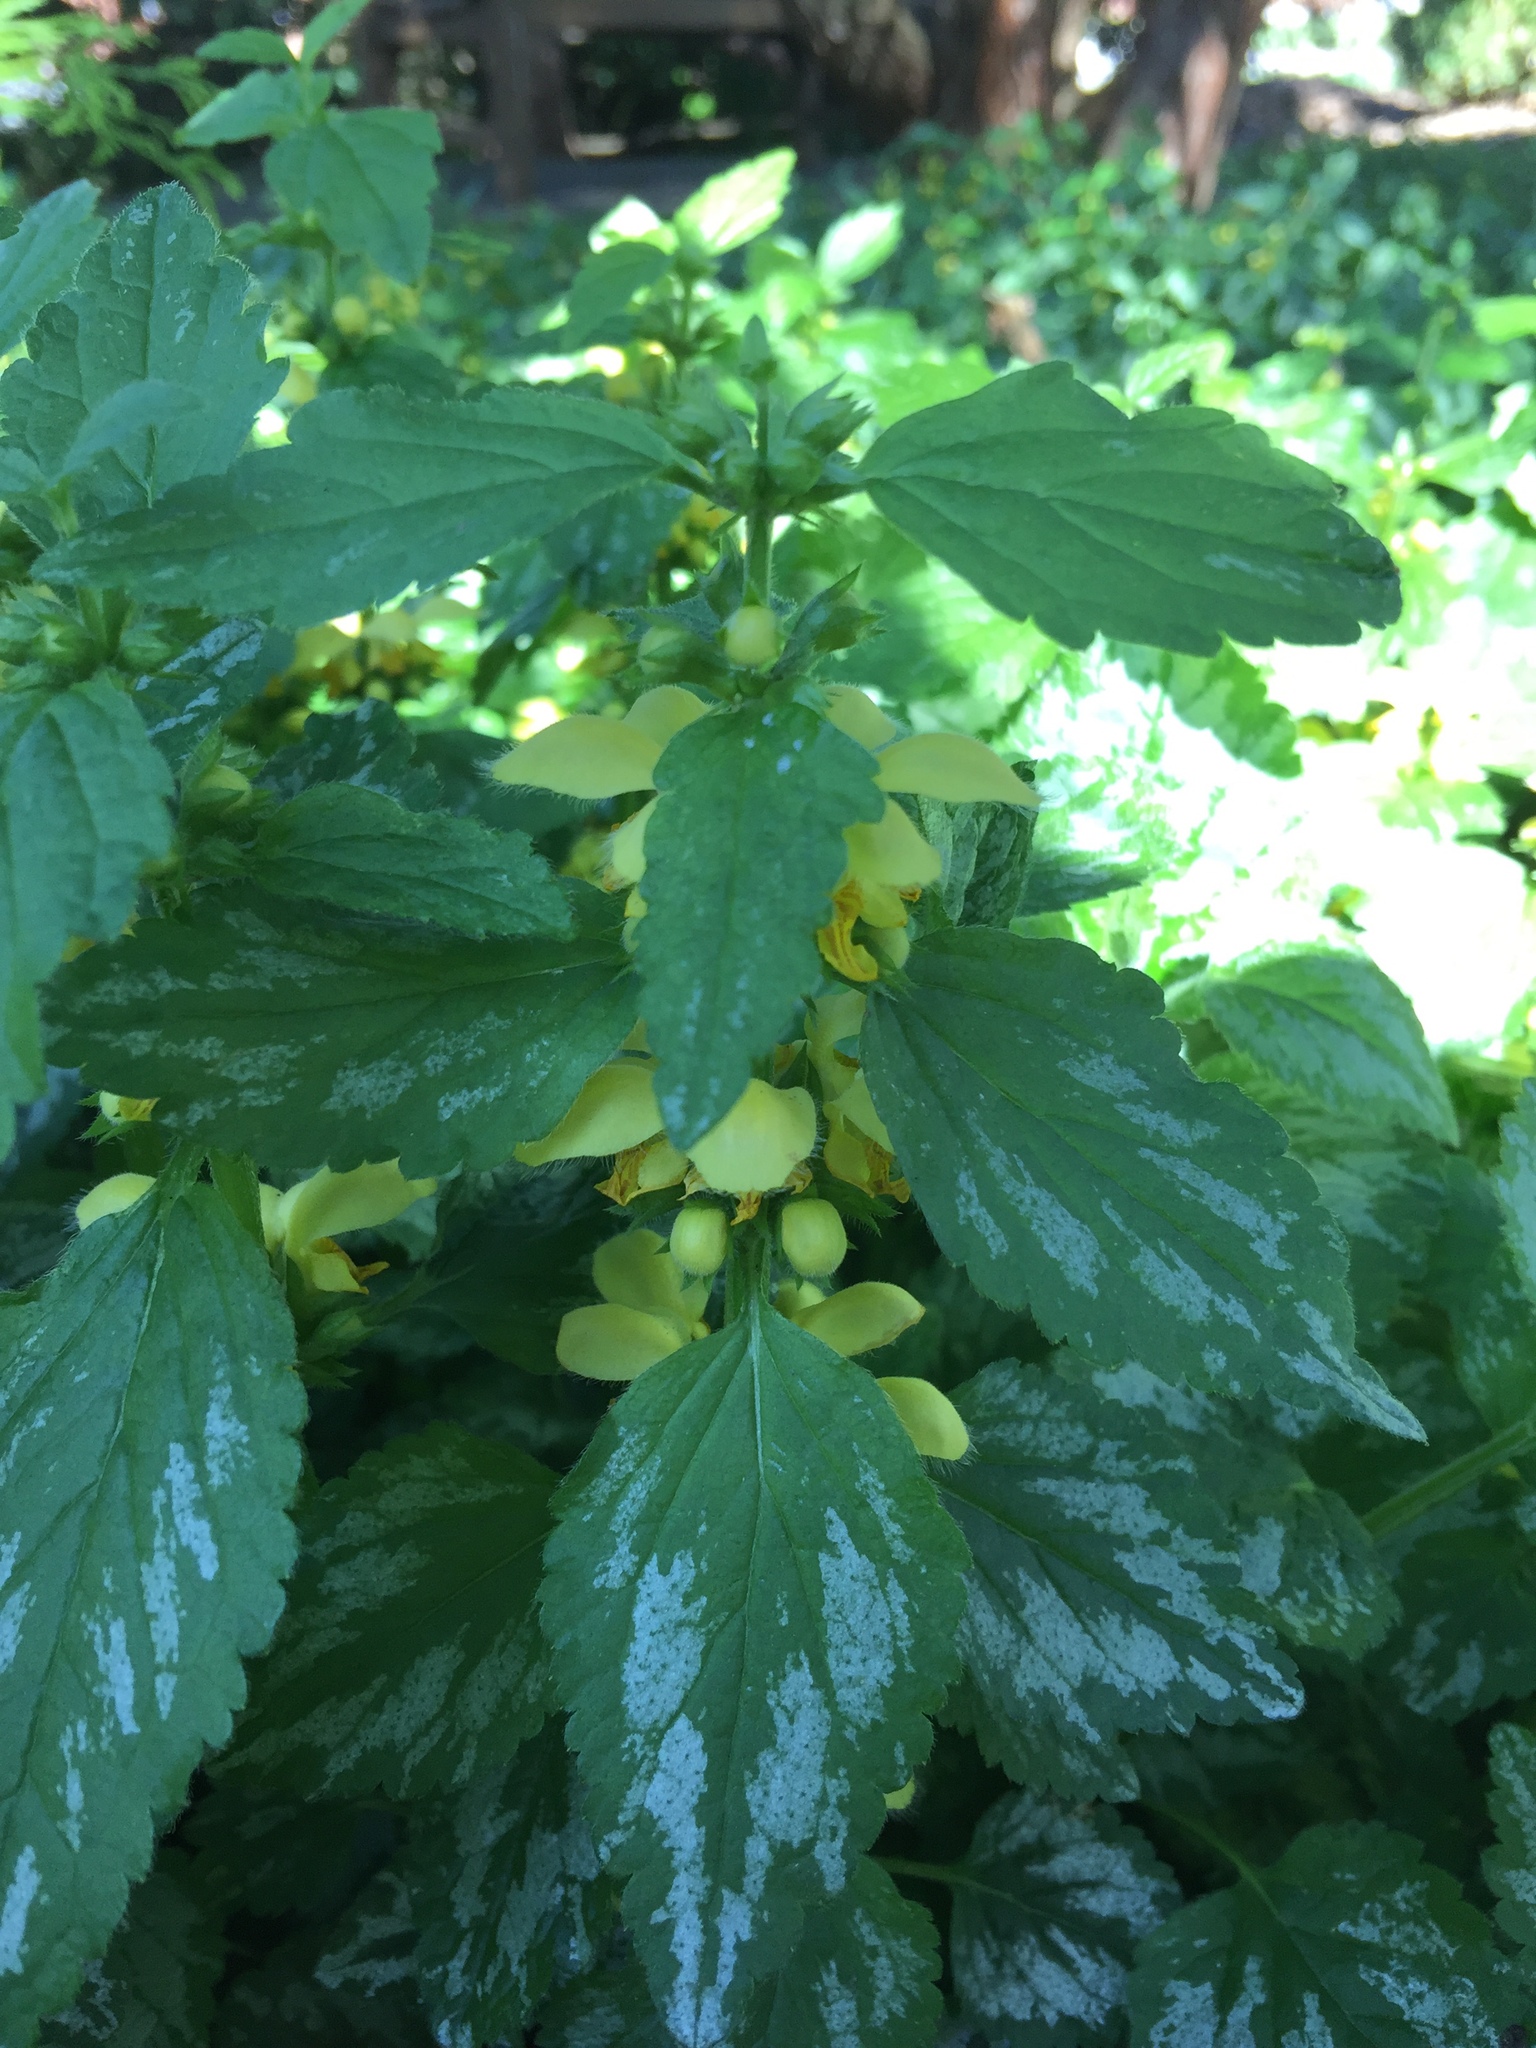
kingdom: Plantae
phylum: Tracheophyta
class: Magnoliopsida
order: Lamiales
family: Lamiaceae
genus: Lamium
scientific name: Lamium galeobdolon
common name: Yellow archangel
